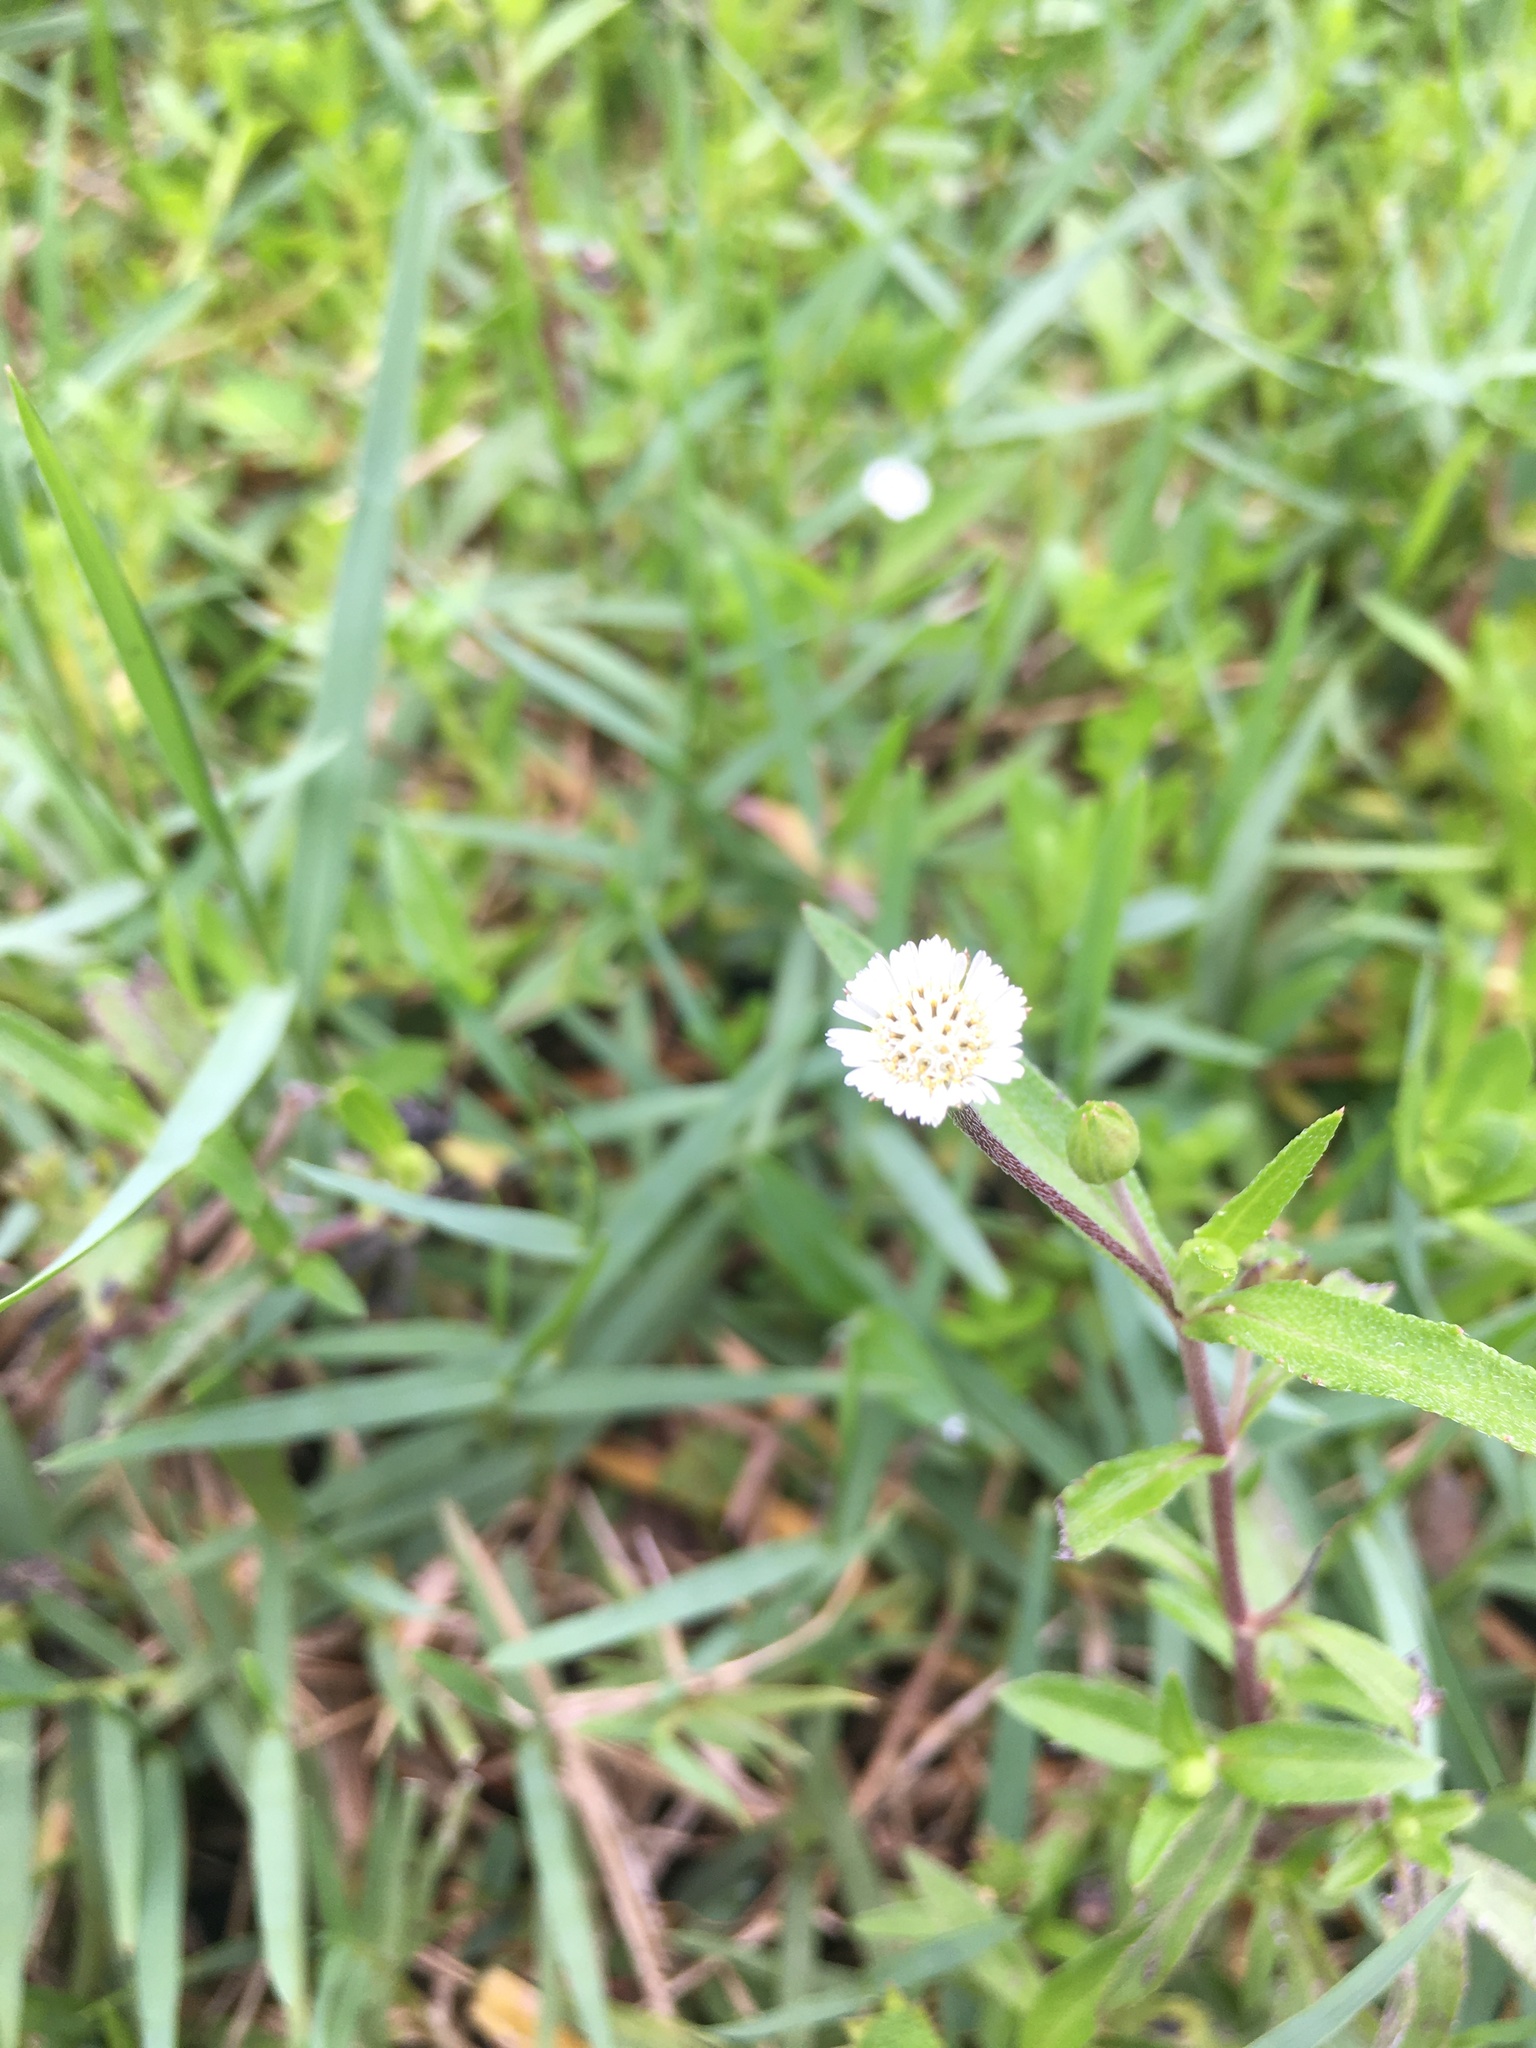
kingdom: Plantae
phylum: Tracheophyta
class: Magnoliopsida
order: Asterales
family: Asteraceae
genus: Eclipta
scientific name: Eclipta prostrata
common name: False daisy
